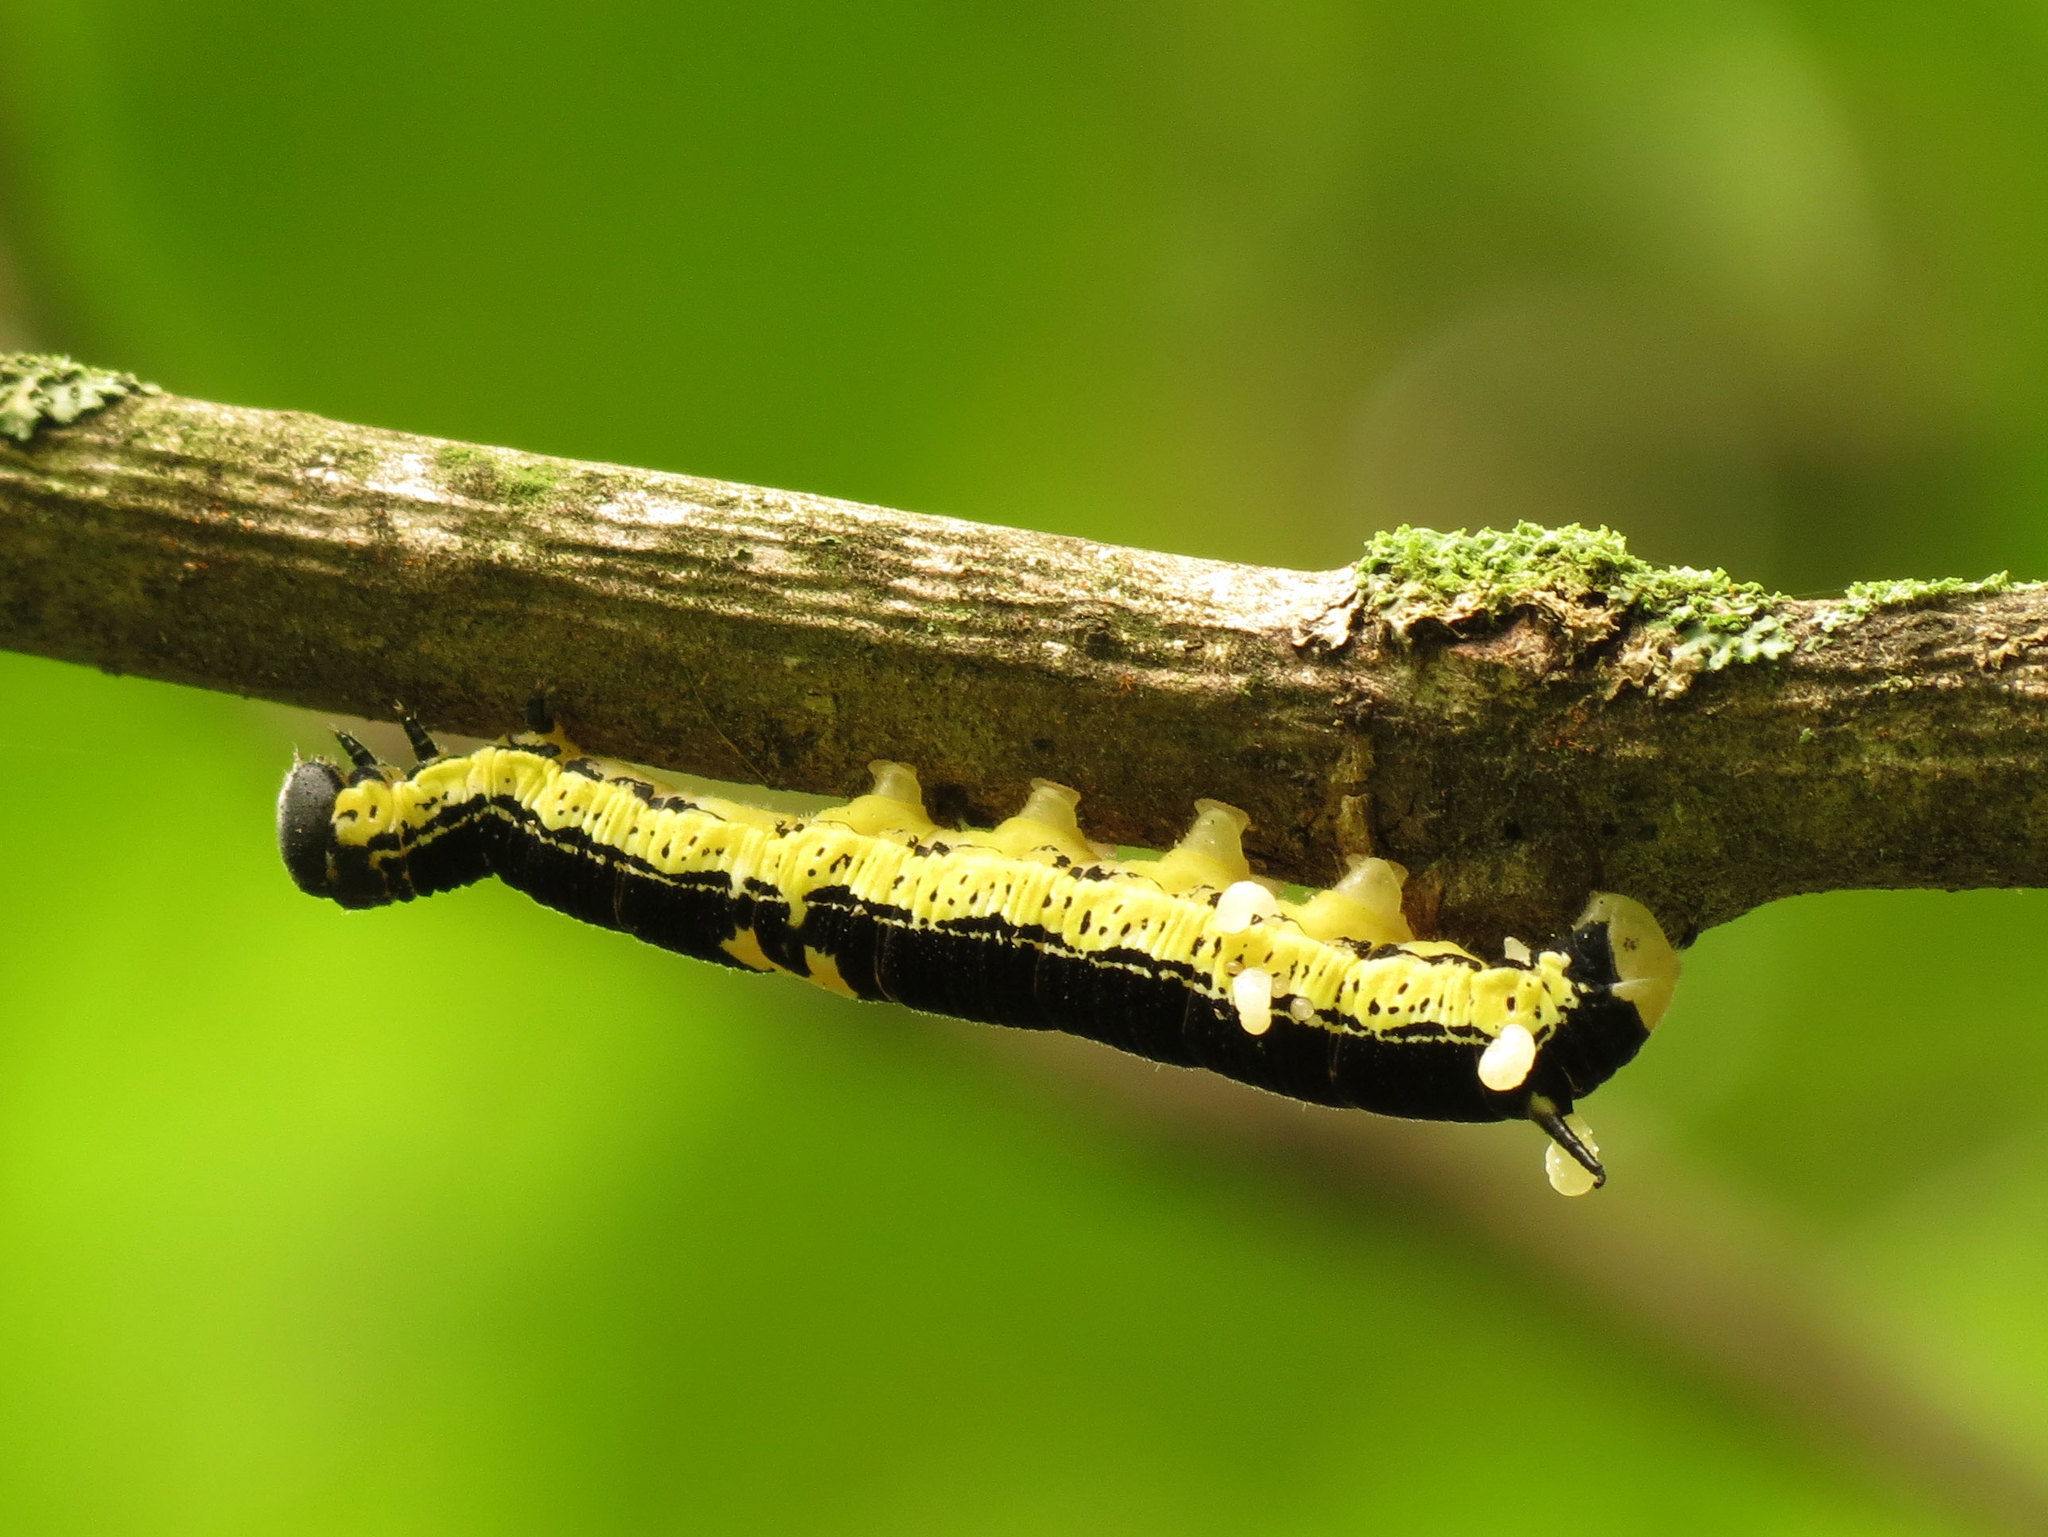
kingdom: Animalia
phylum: Arthropoda
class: Insecta
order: Lepidoptera
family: Sphingidae
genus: Ceratomia
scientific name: Ceratomia catalpae
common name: Catalpa hornworm
